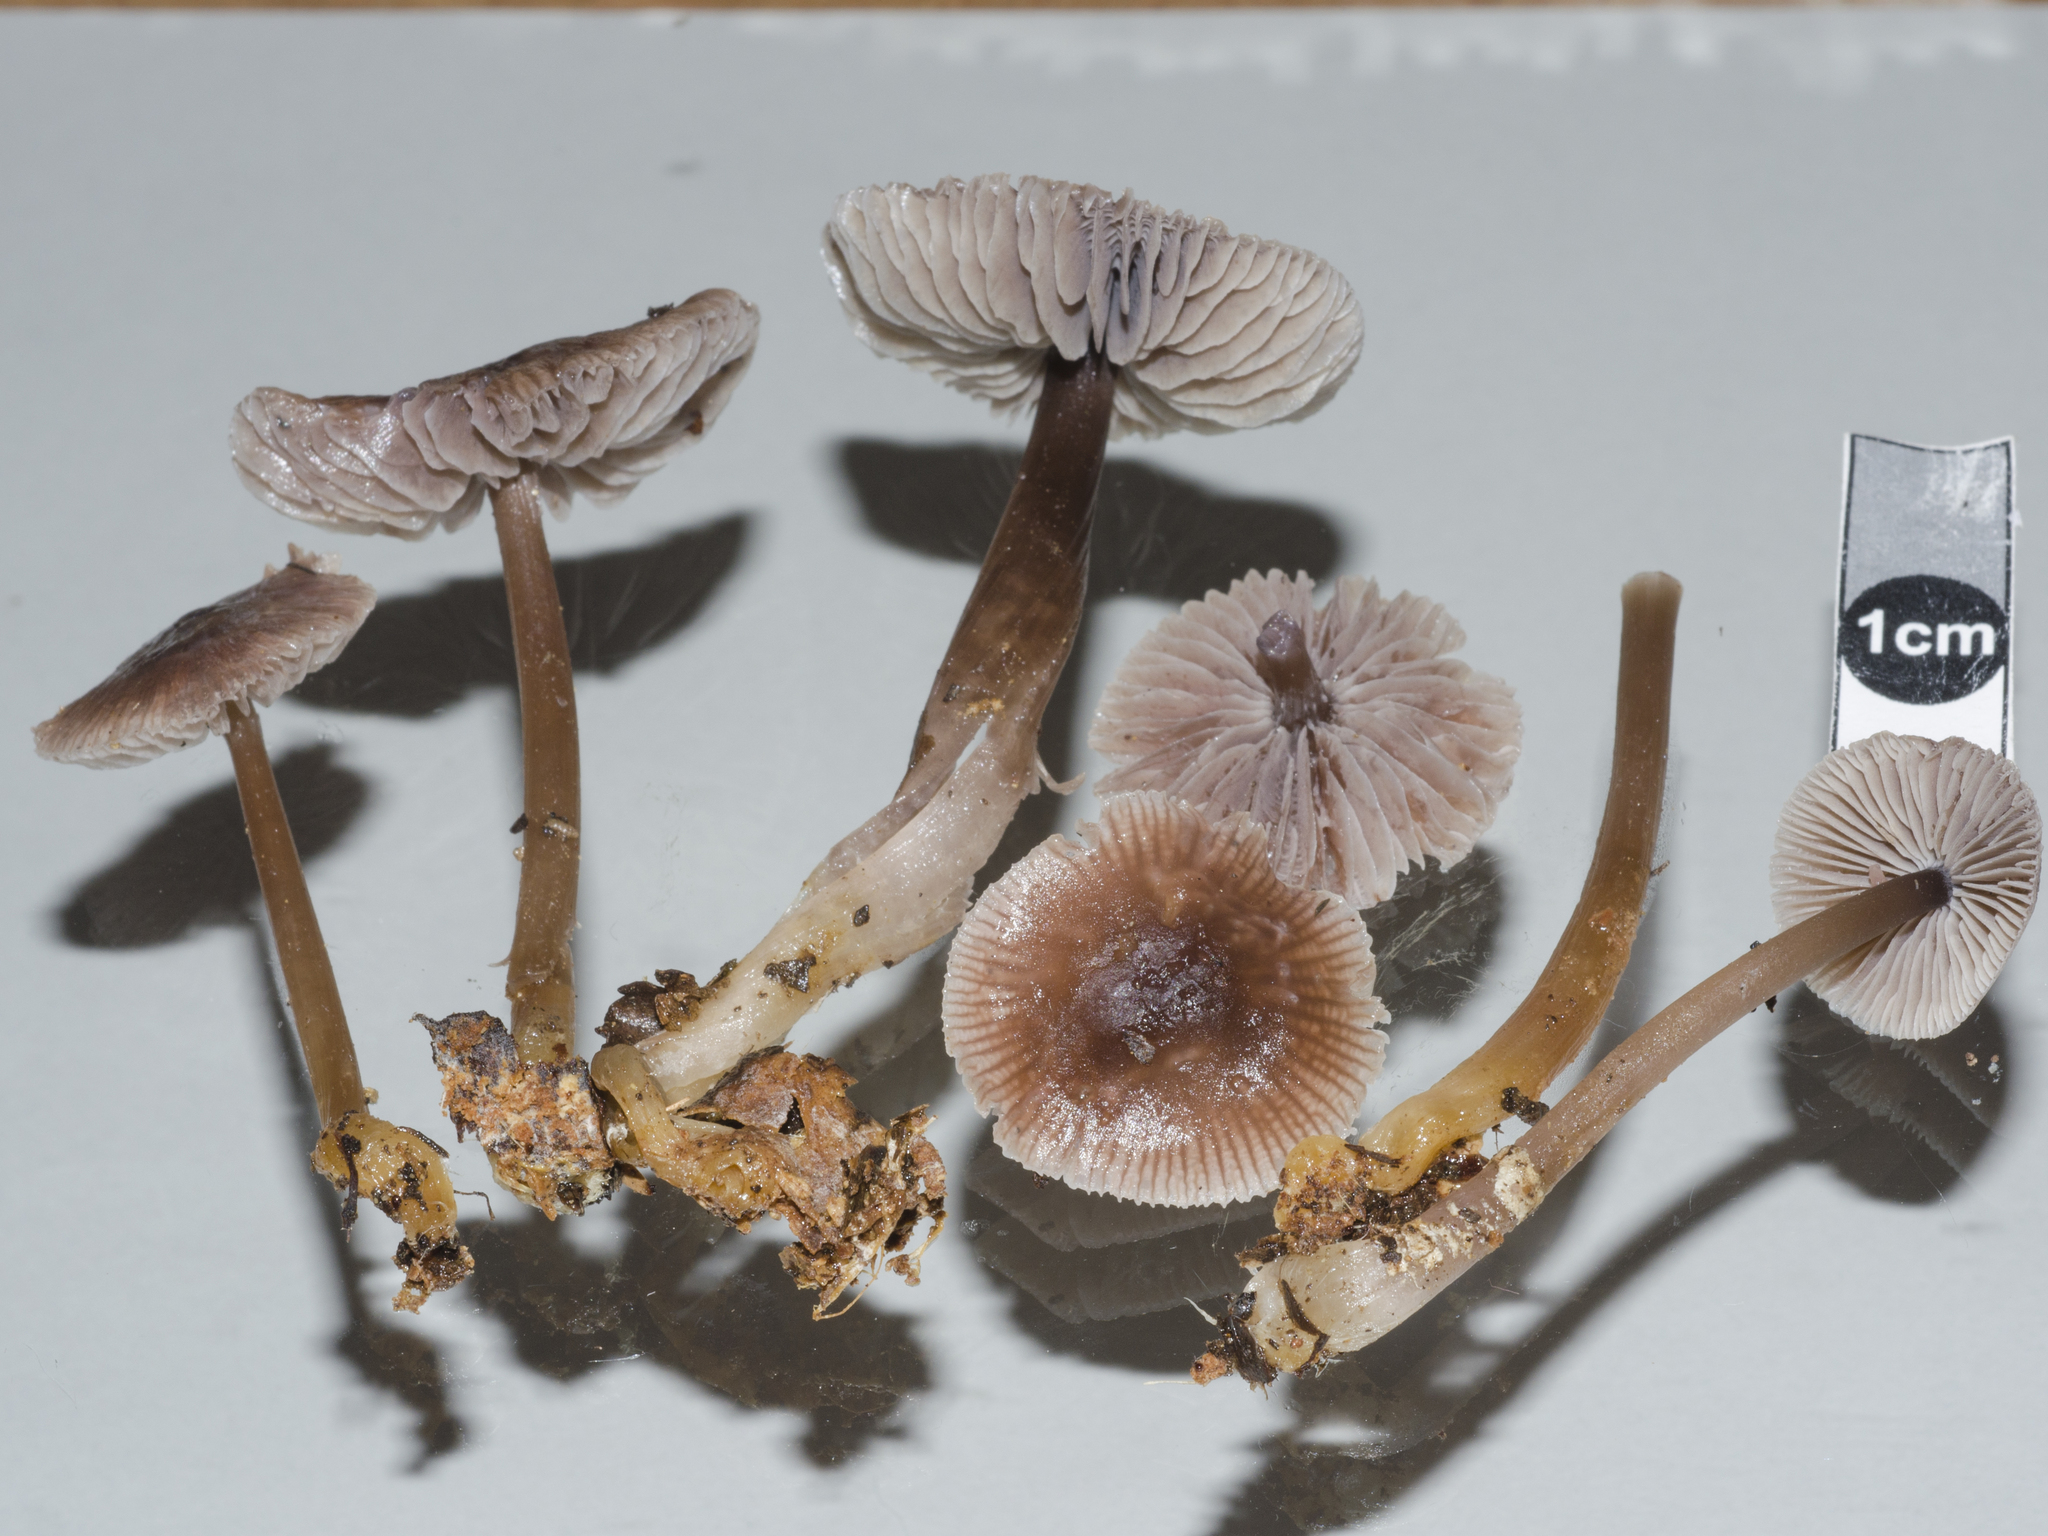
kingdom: Fungi
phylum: Basidiomycota
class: Agaricomycetes
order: Agaricales
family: Mycenaceae
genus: Mycena
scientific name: Mycena vinacea
